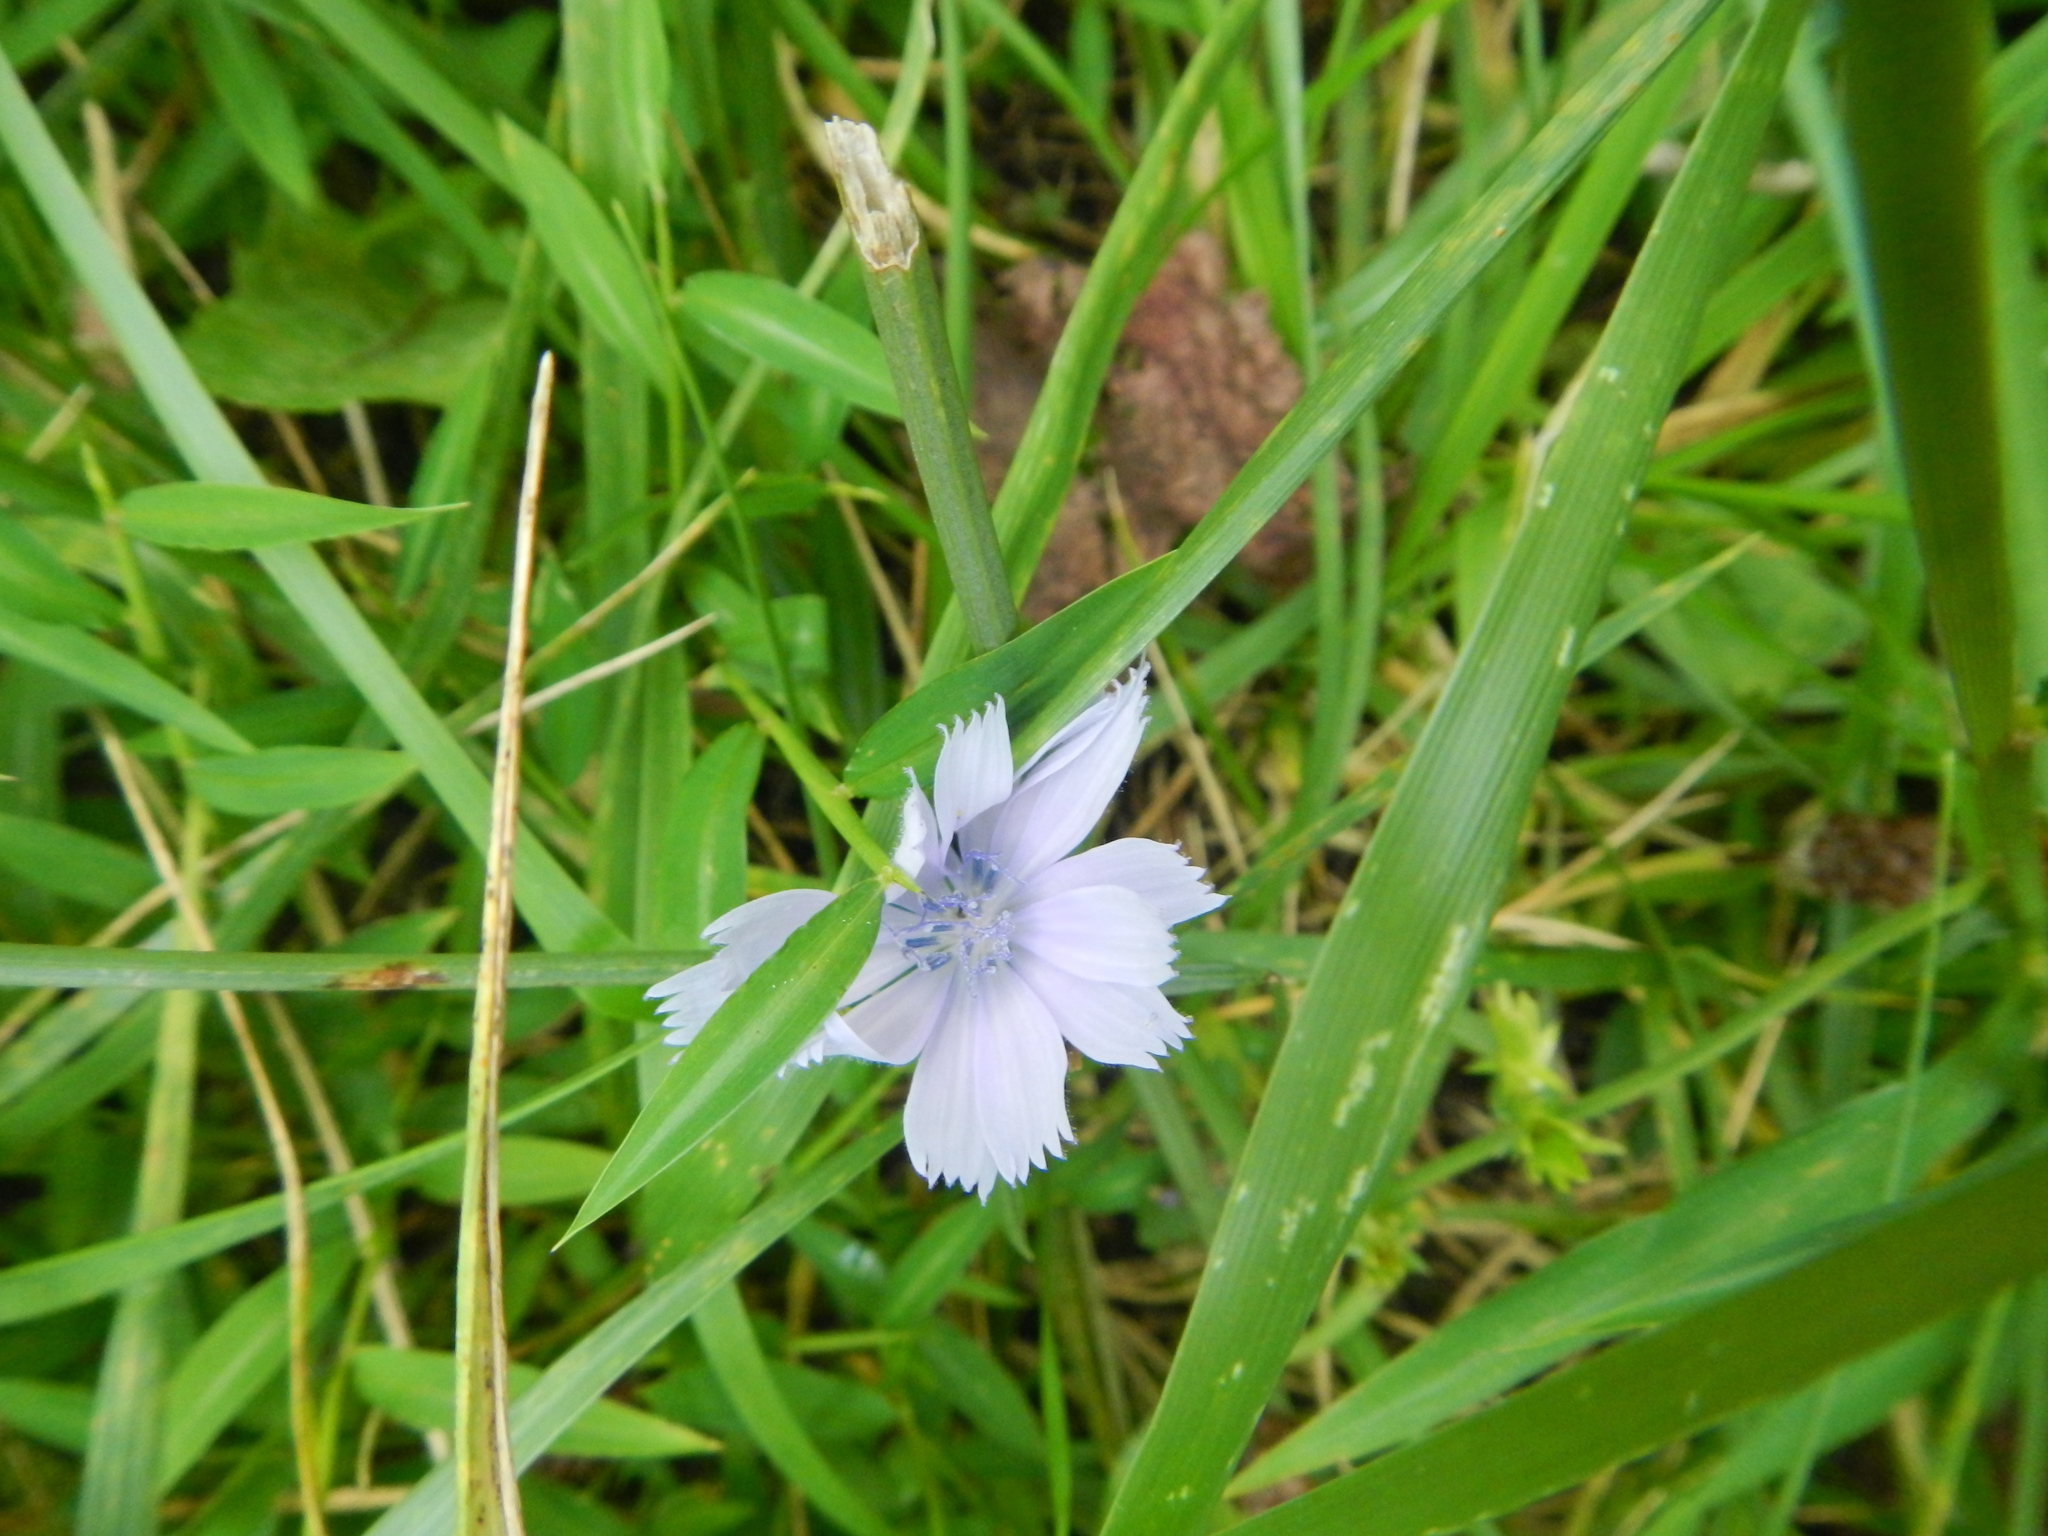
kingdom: Plantae
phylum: Tracheophyta
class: Magnoliopsida
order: Asterales
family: Asteraceae
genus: Cichorium
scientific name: Cichorium intybus
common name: Chicory
